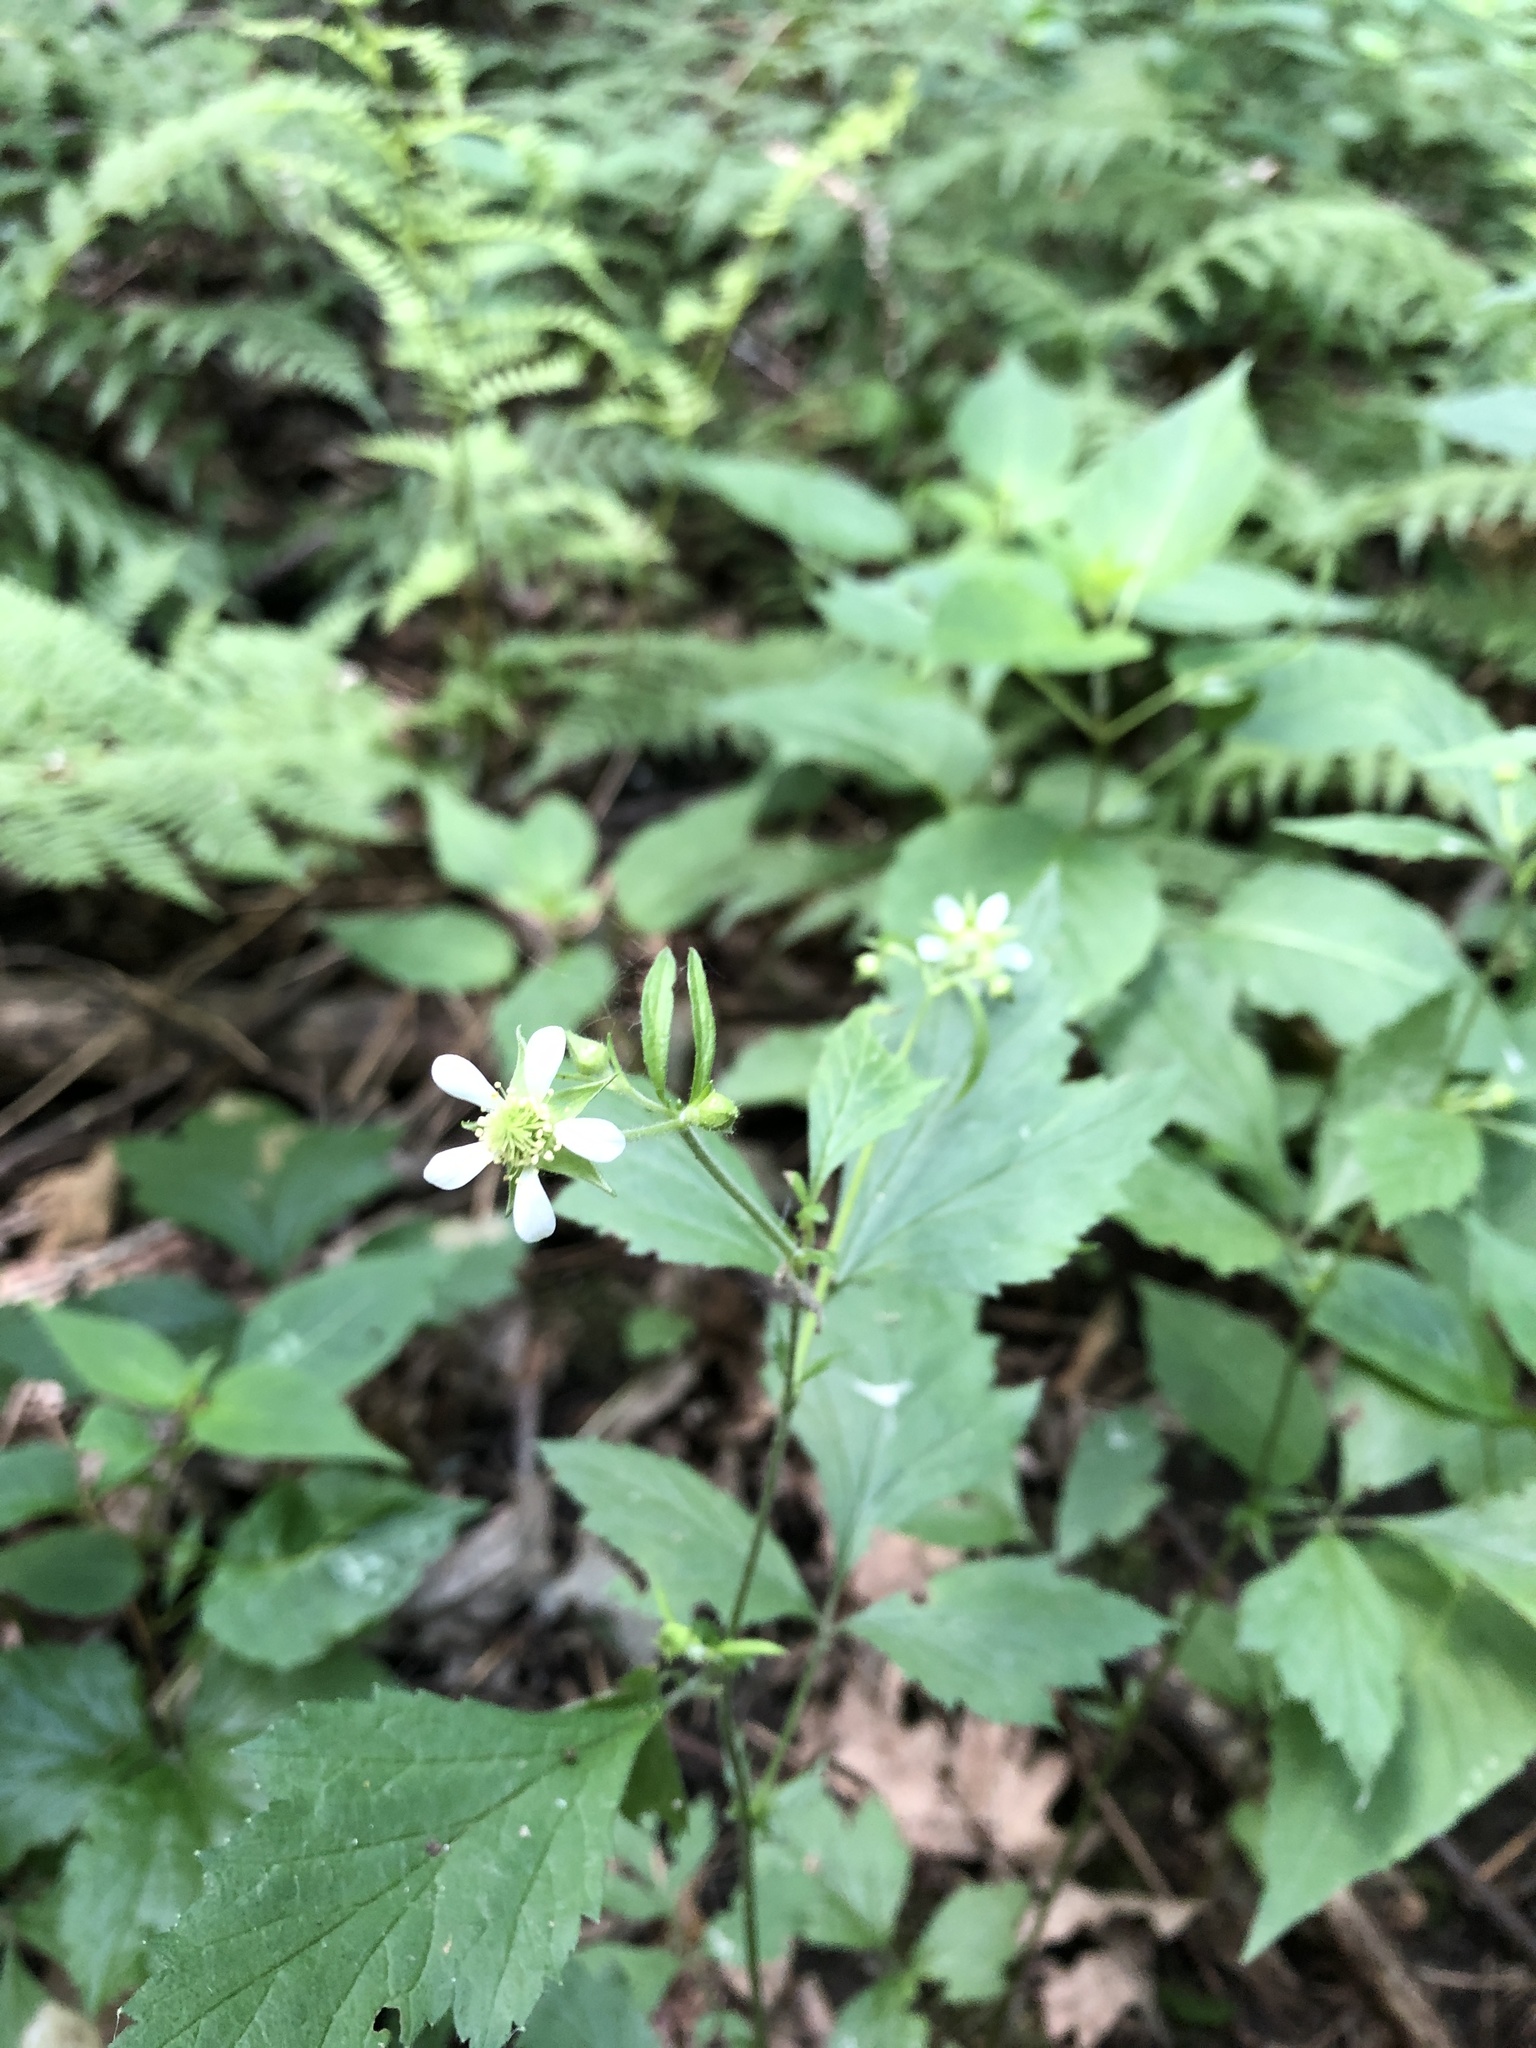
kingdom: Plantae
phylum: Tracheophyta
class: Magnoliopsida
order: Rosales
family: Rosaceae
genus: Geum
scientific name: Geum canadense
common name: White avens
